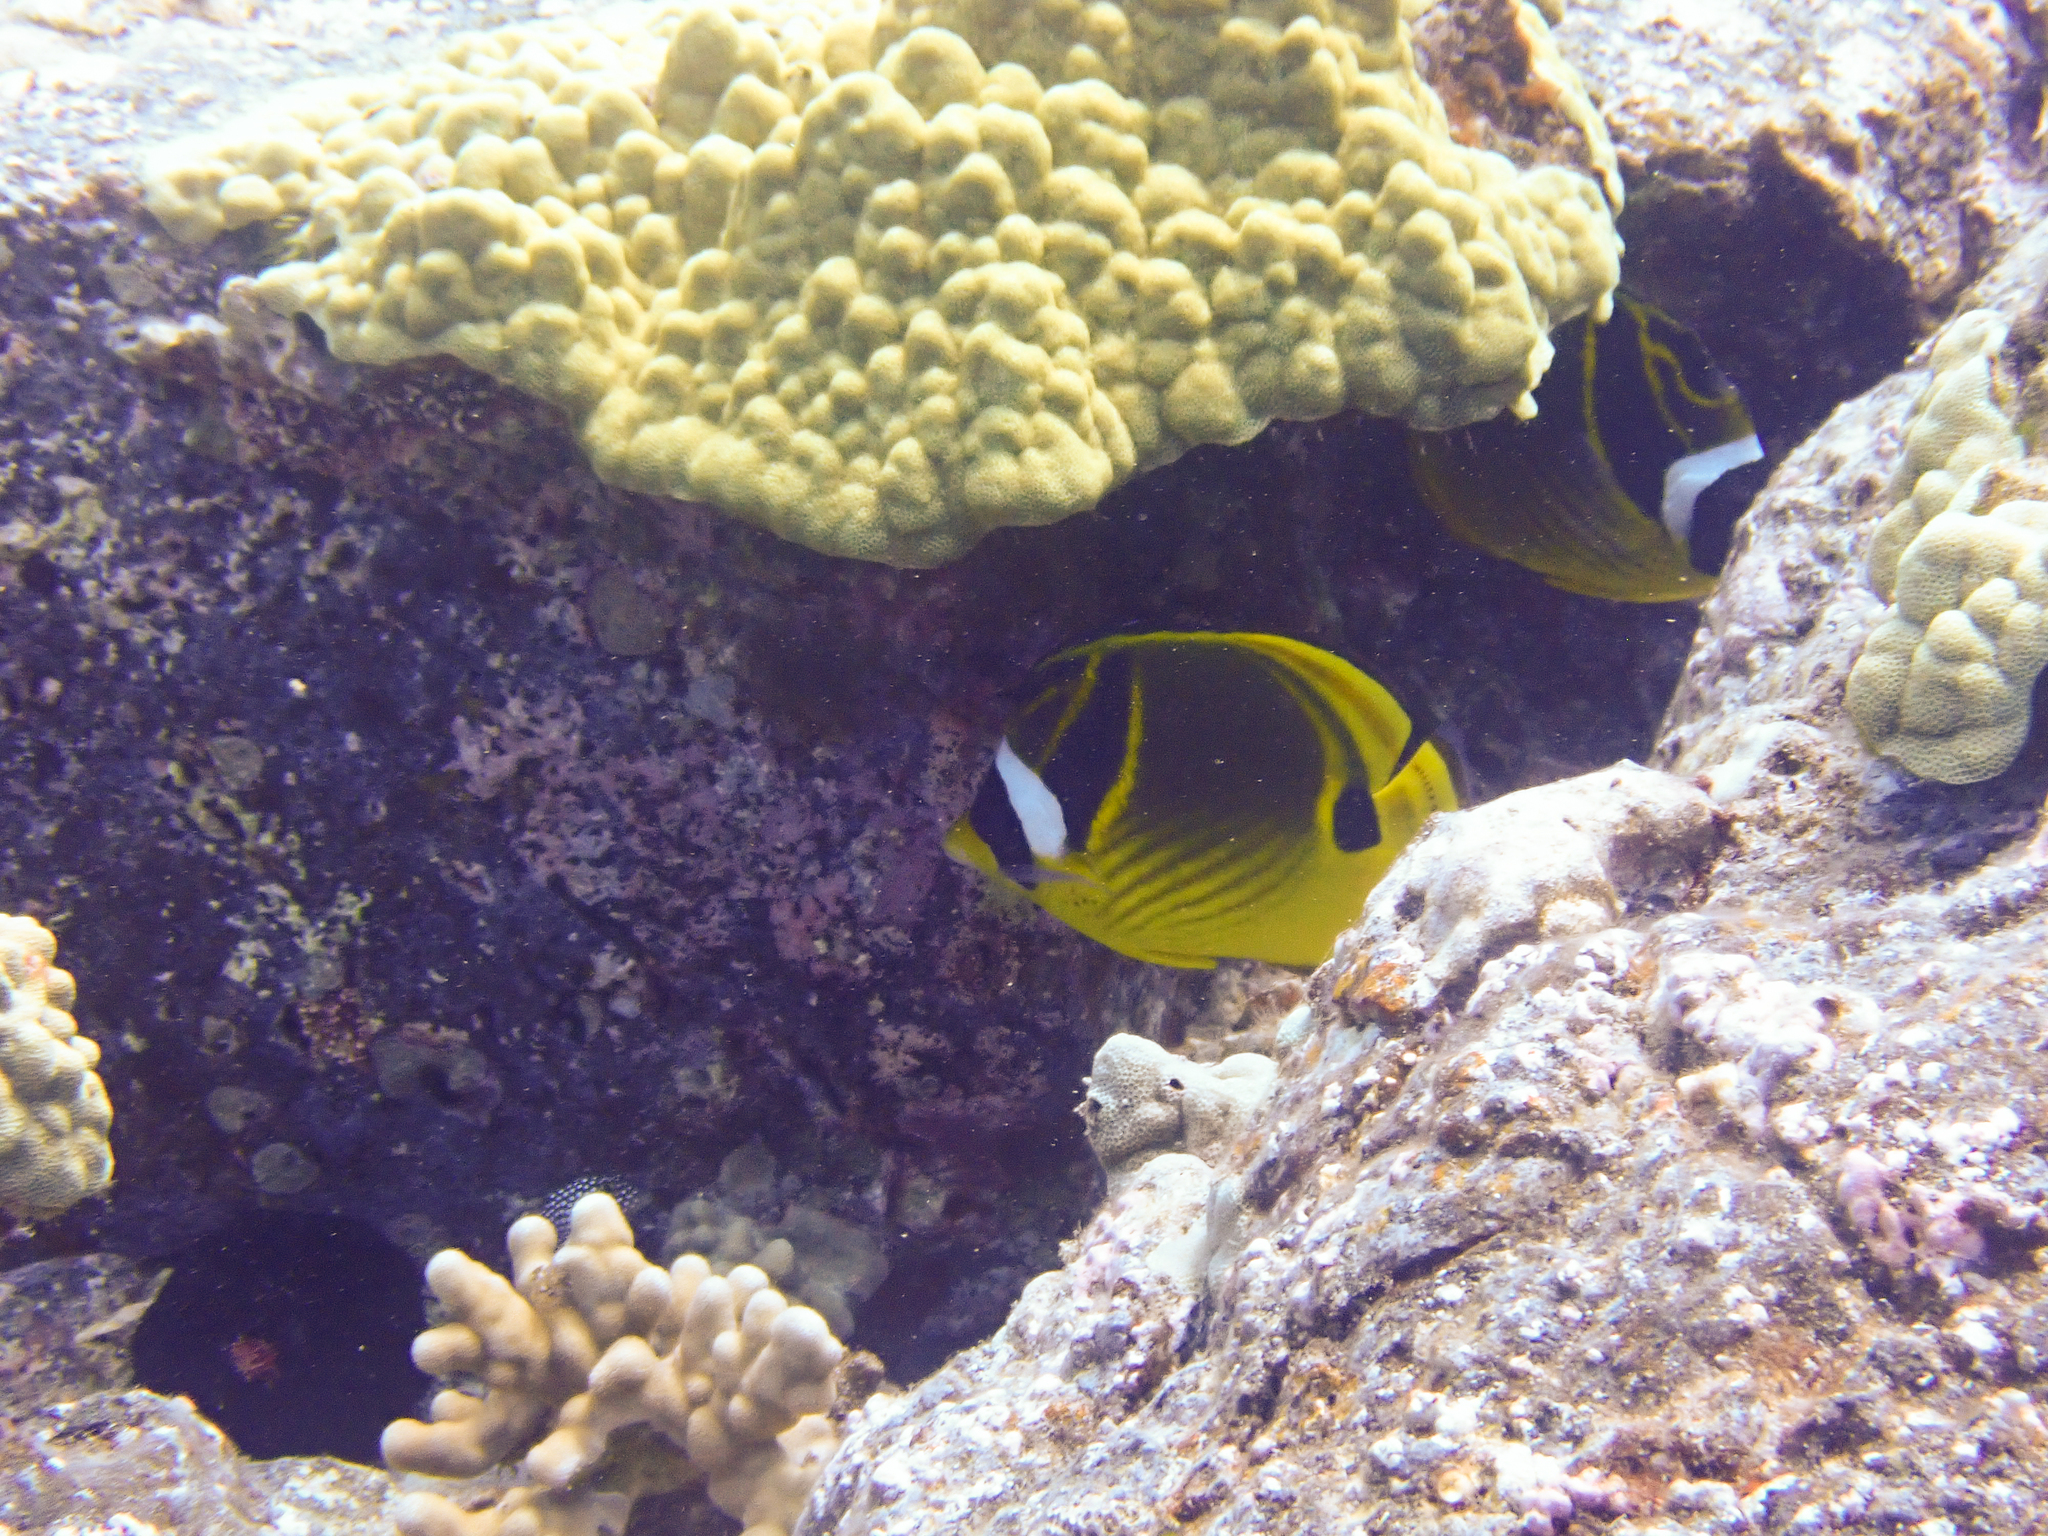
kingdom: Animalia
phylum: Chordata
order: Perciformes
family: Chaetodontidae
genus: Chaetodon
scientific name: Chaetodon lunula
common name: Raccoon butterflyfish
